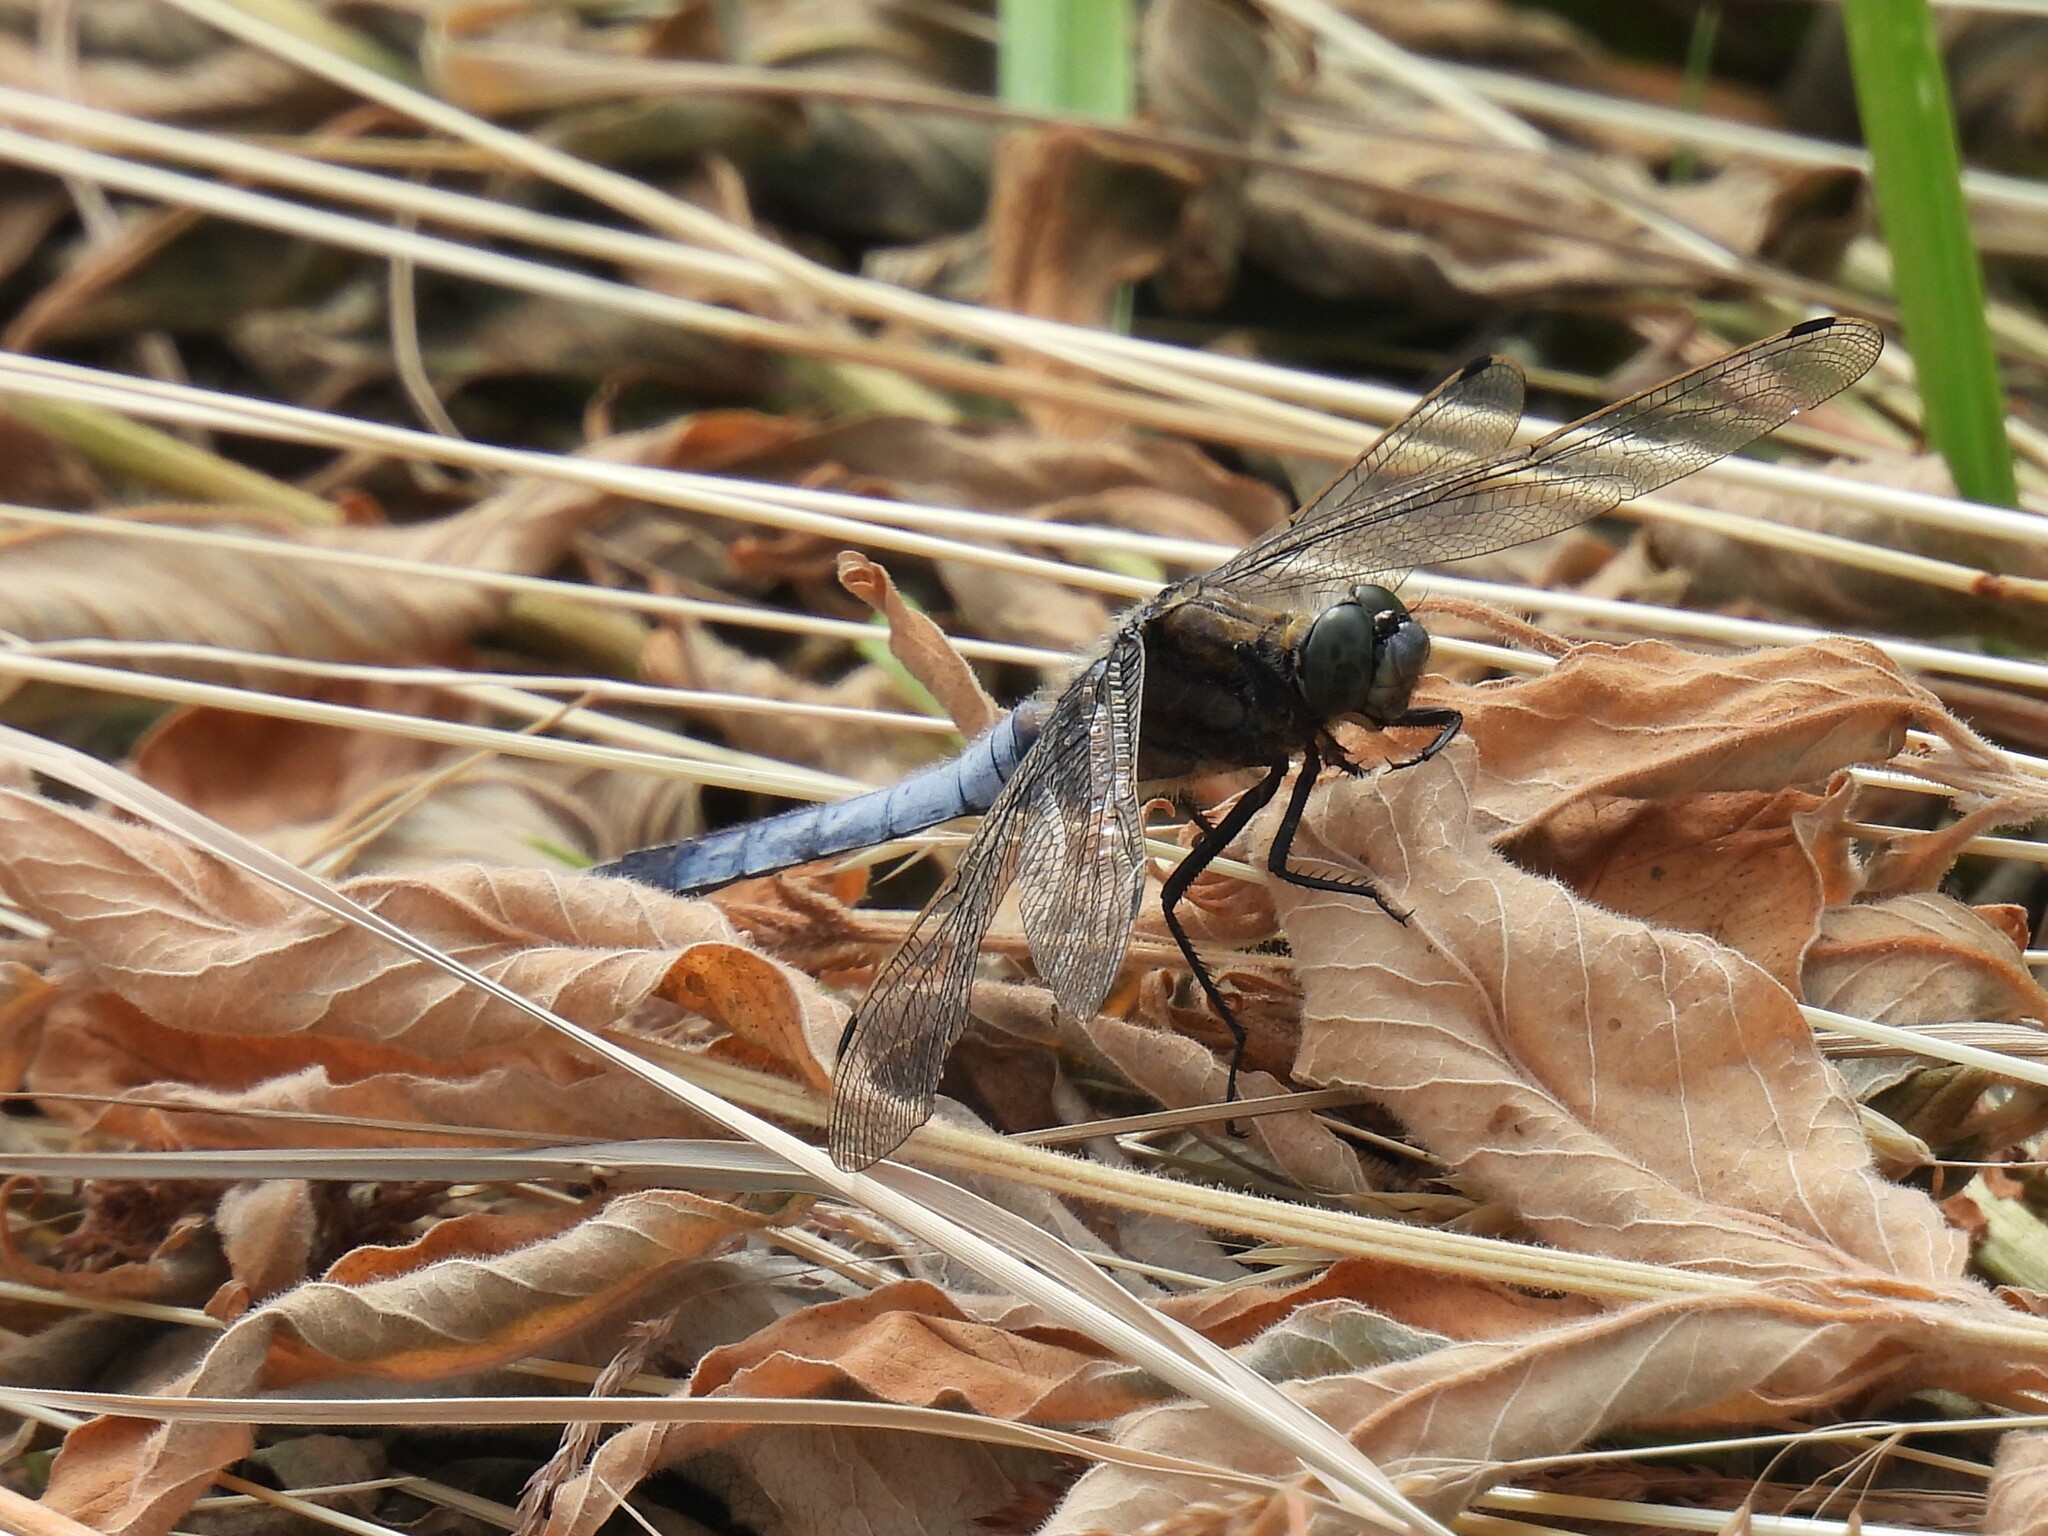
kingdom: Animalia
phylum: Arthropoda
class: Insecta
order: Odonata
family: Libellulidae
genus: Orthetrum
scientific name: Orthetrum cancellatum
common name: Black-tailed skimmer
